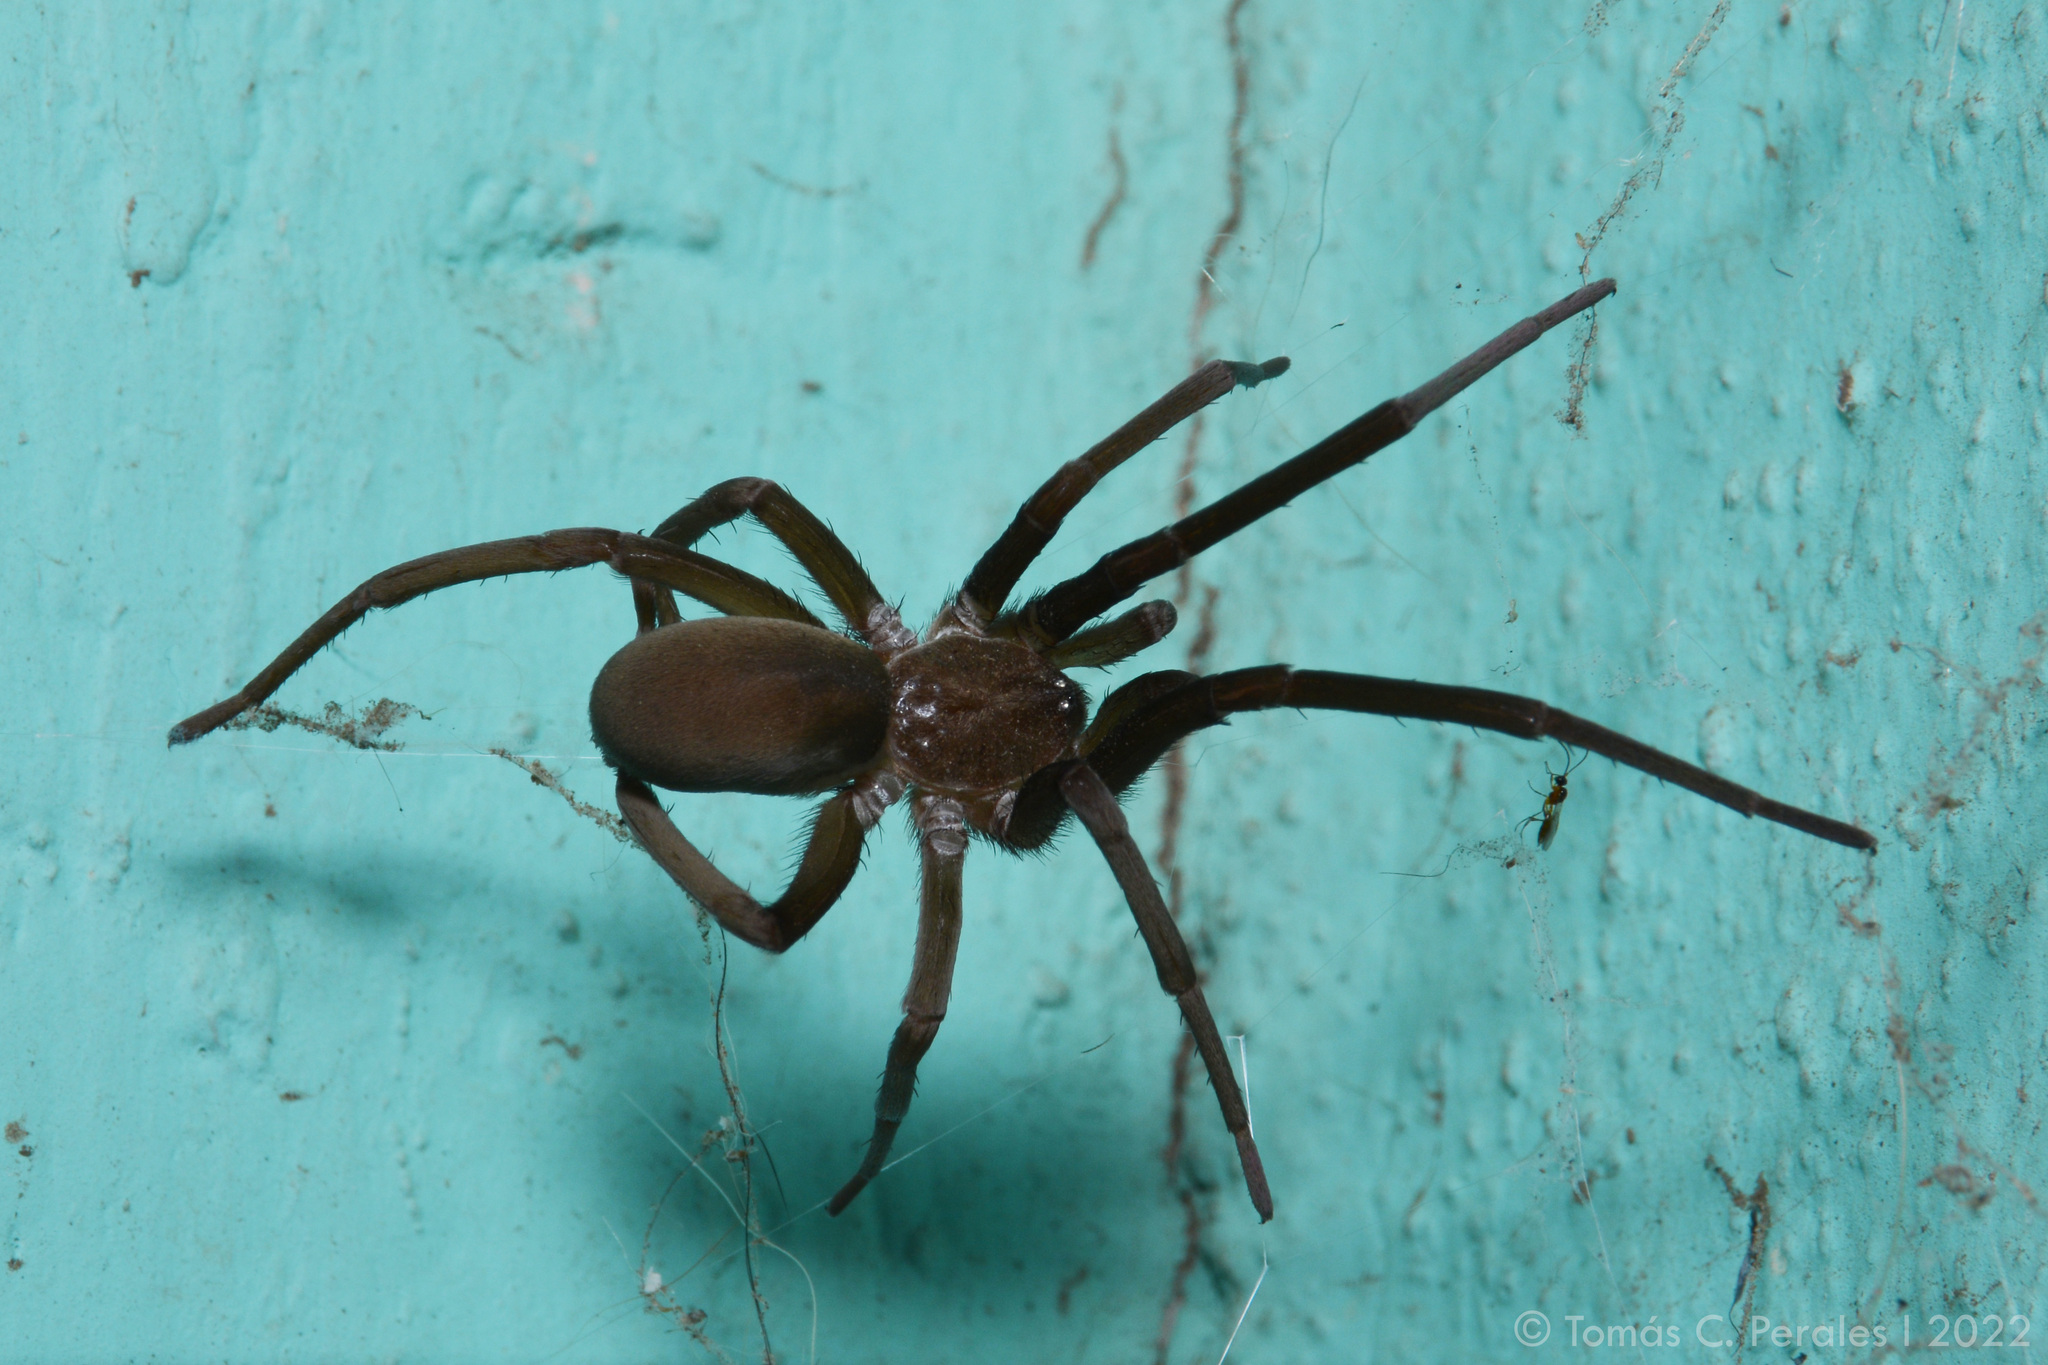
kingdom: Animalia
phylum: Arthropoda
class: Arachnida
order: Araneae
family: Filistatidae
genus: Kukulcania
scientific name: Kukulcania hibernalis
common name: Crevice weaver
